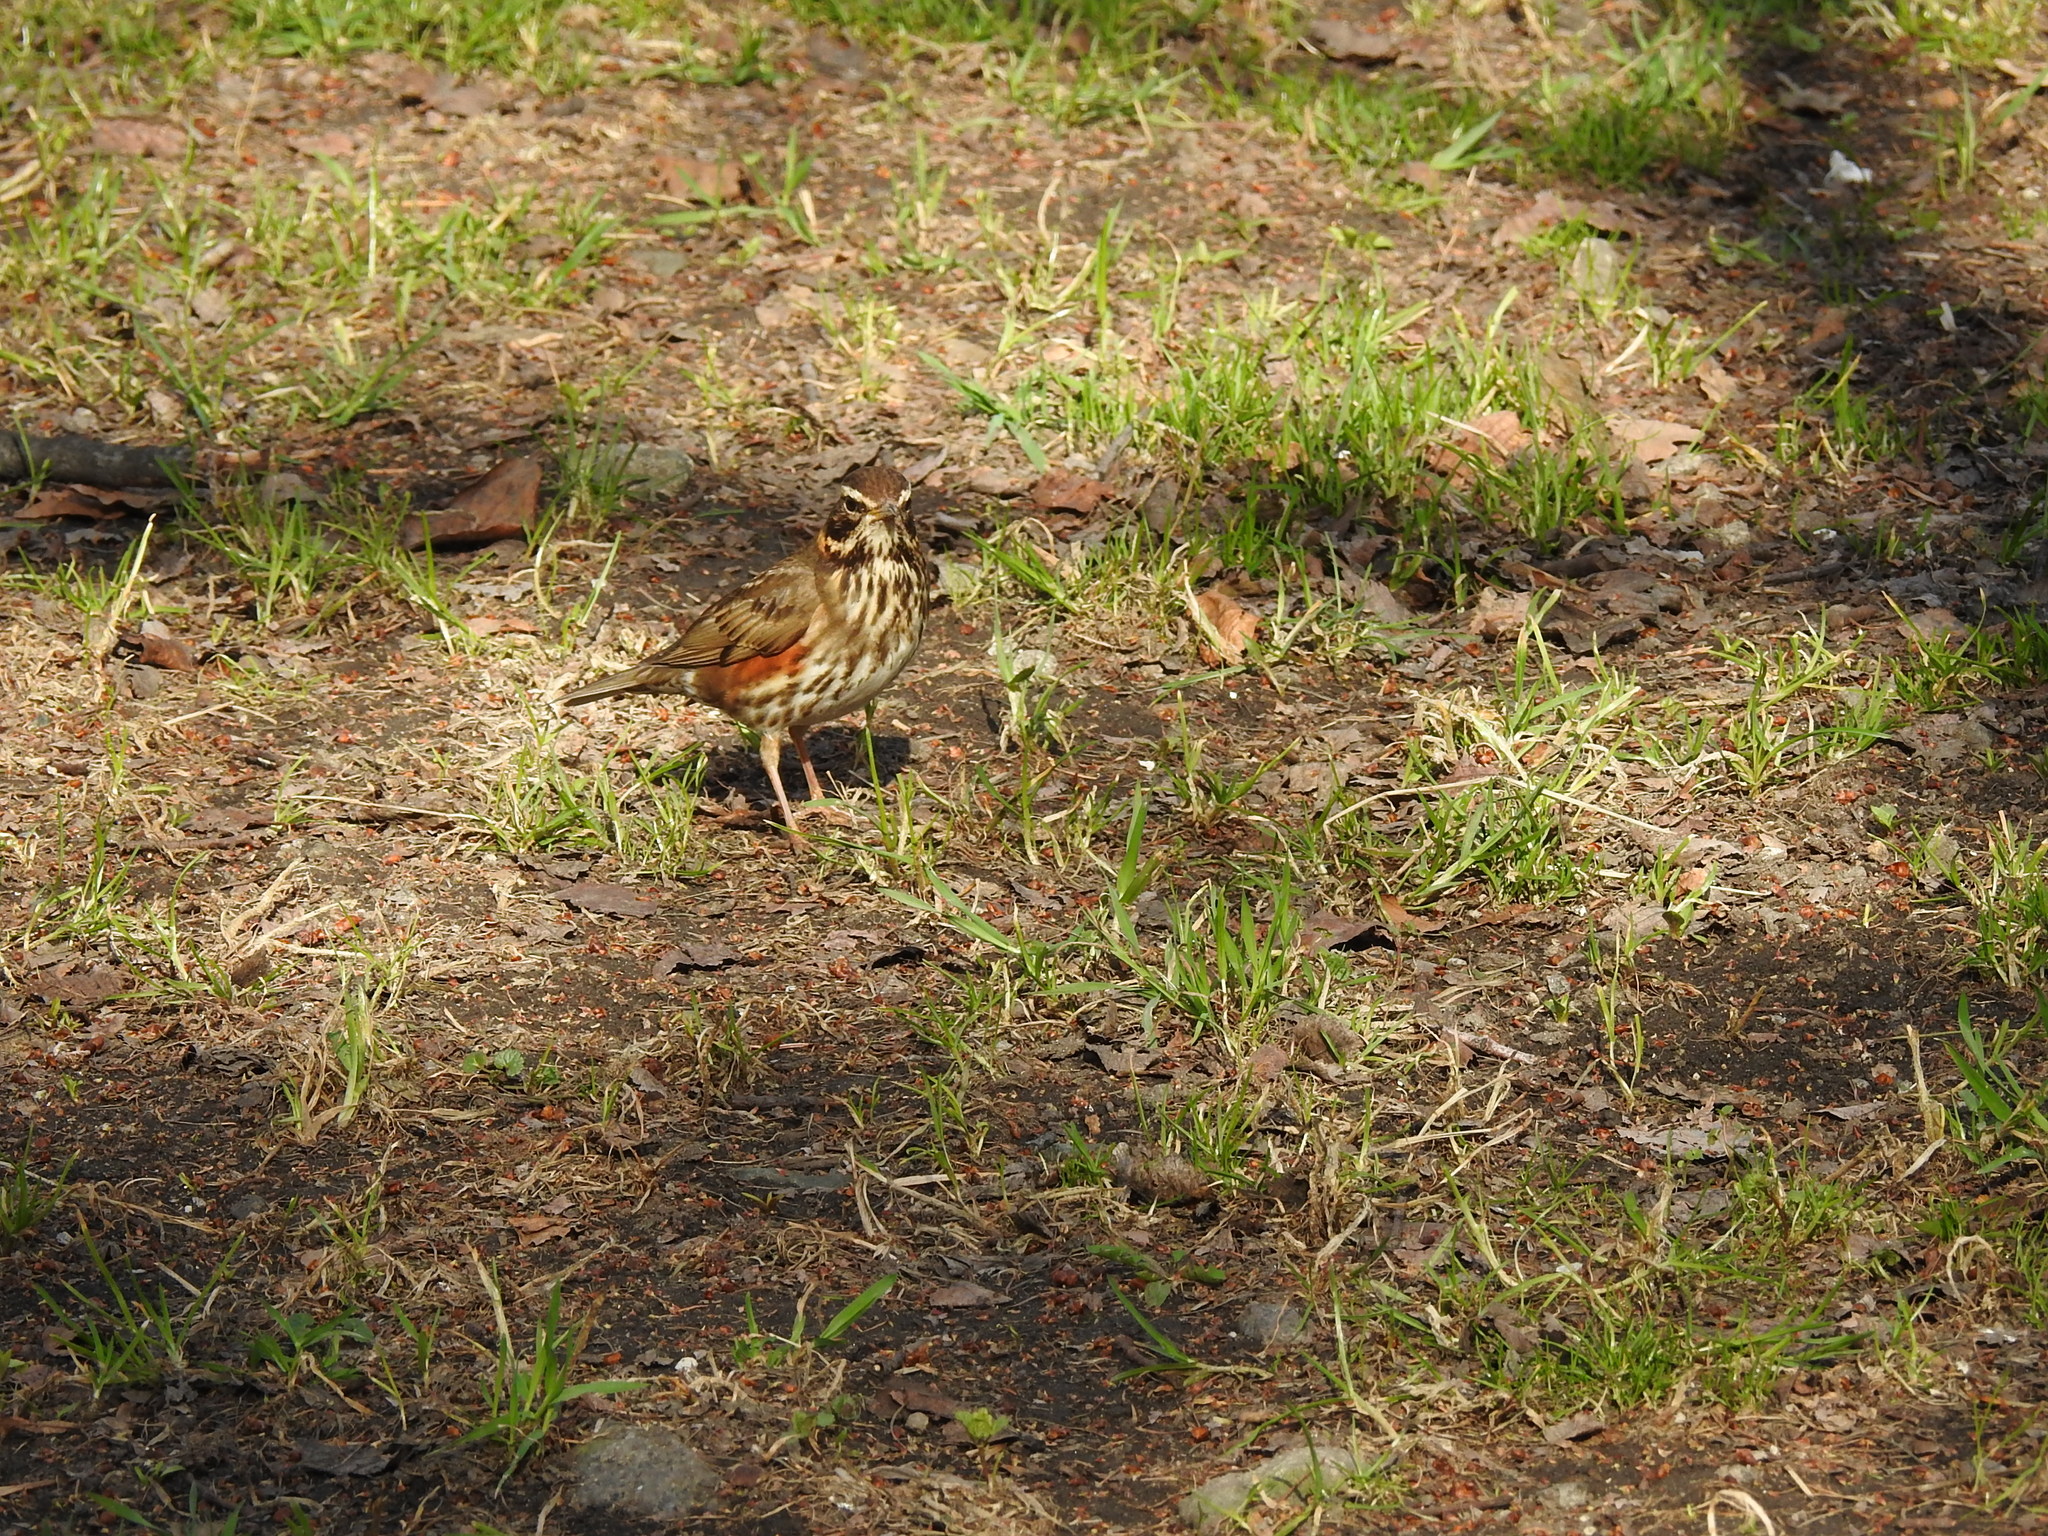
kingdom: Animalia
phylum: Chordata
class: Aves
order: Passeriformes
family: Turdidae
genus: Turdus
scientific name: Turdus iliacus
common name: Redwing
